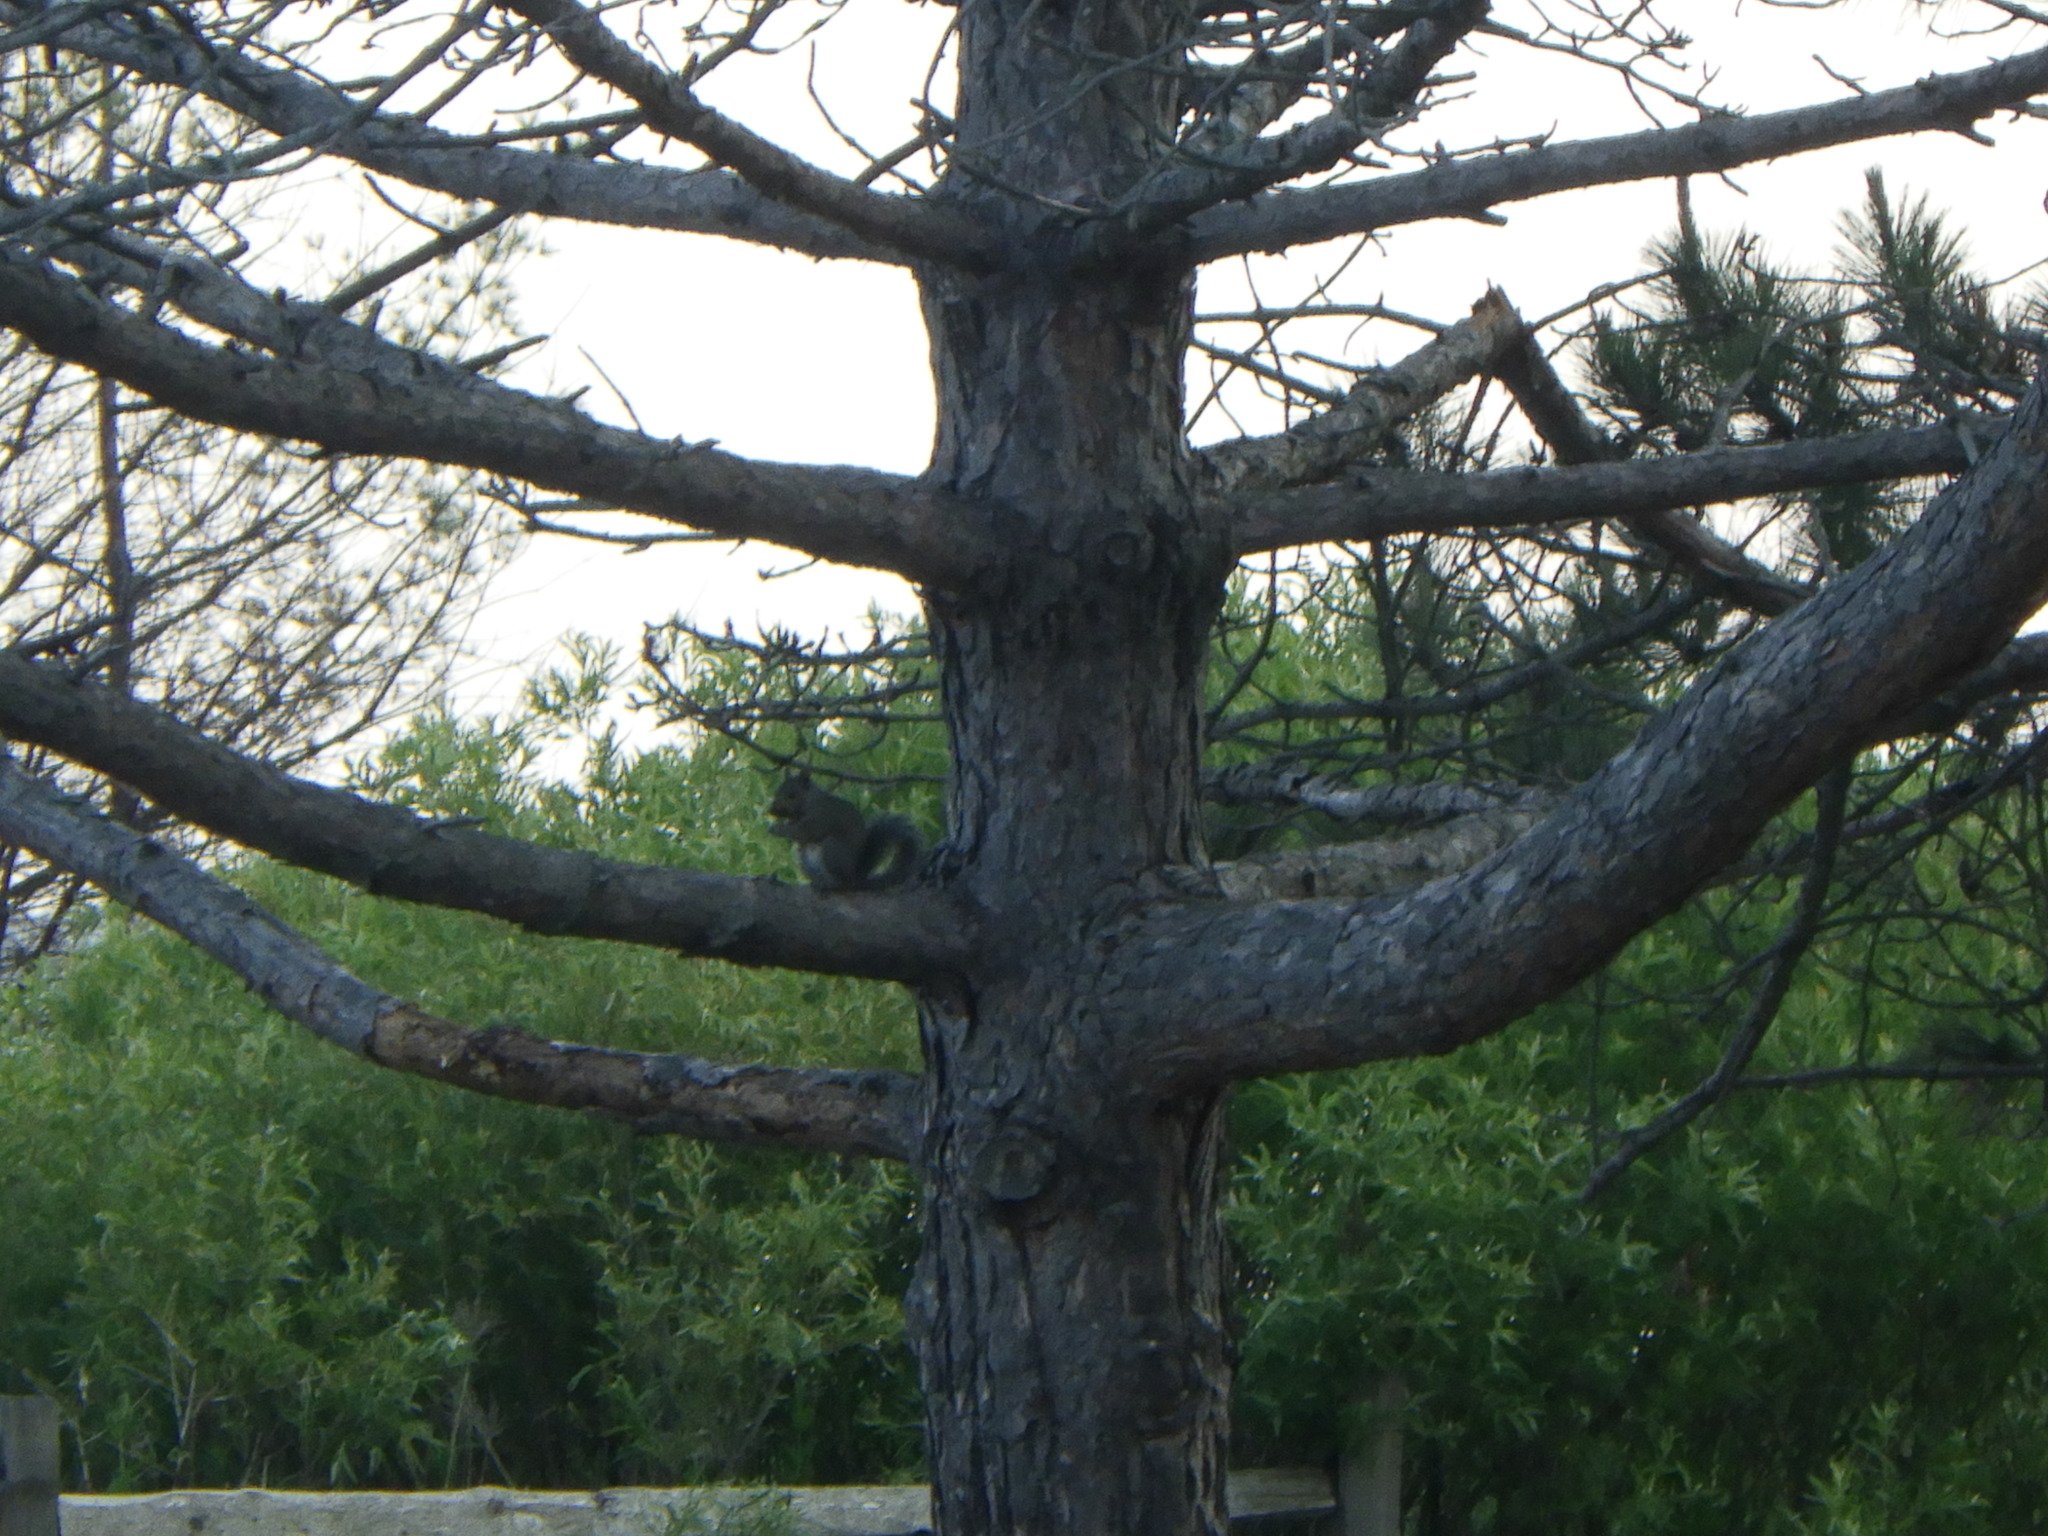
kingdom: Animalia
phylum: Chordata
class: Mammalia
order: Rodentia
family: Sciuridae
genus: Tamiasciurus
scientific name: Tamiasciurus hudsonicus
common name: Red squirrel
